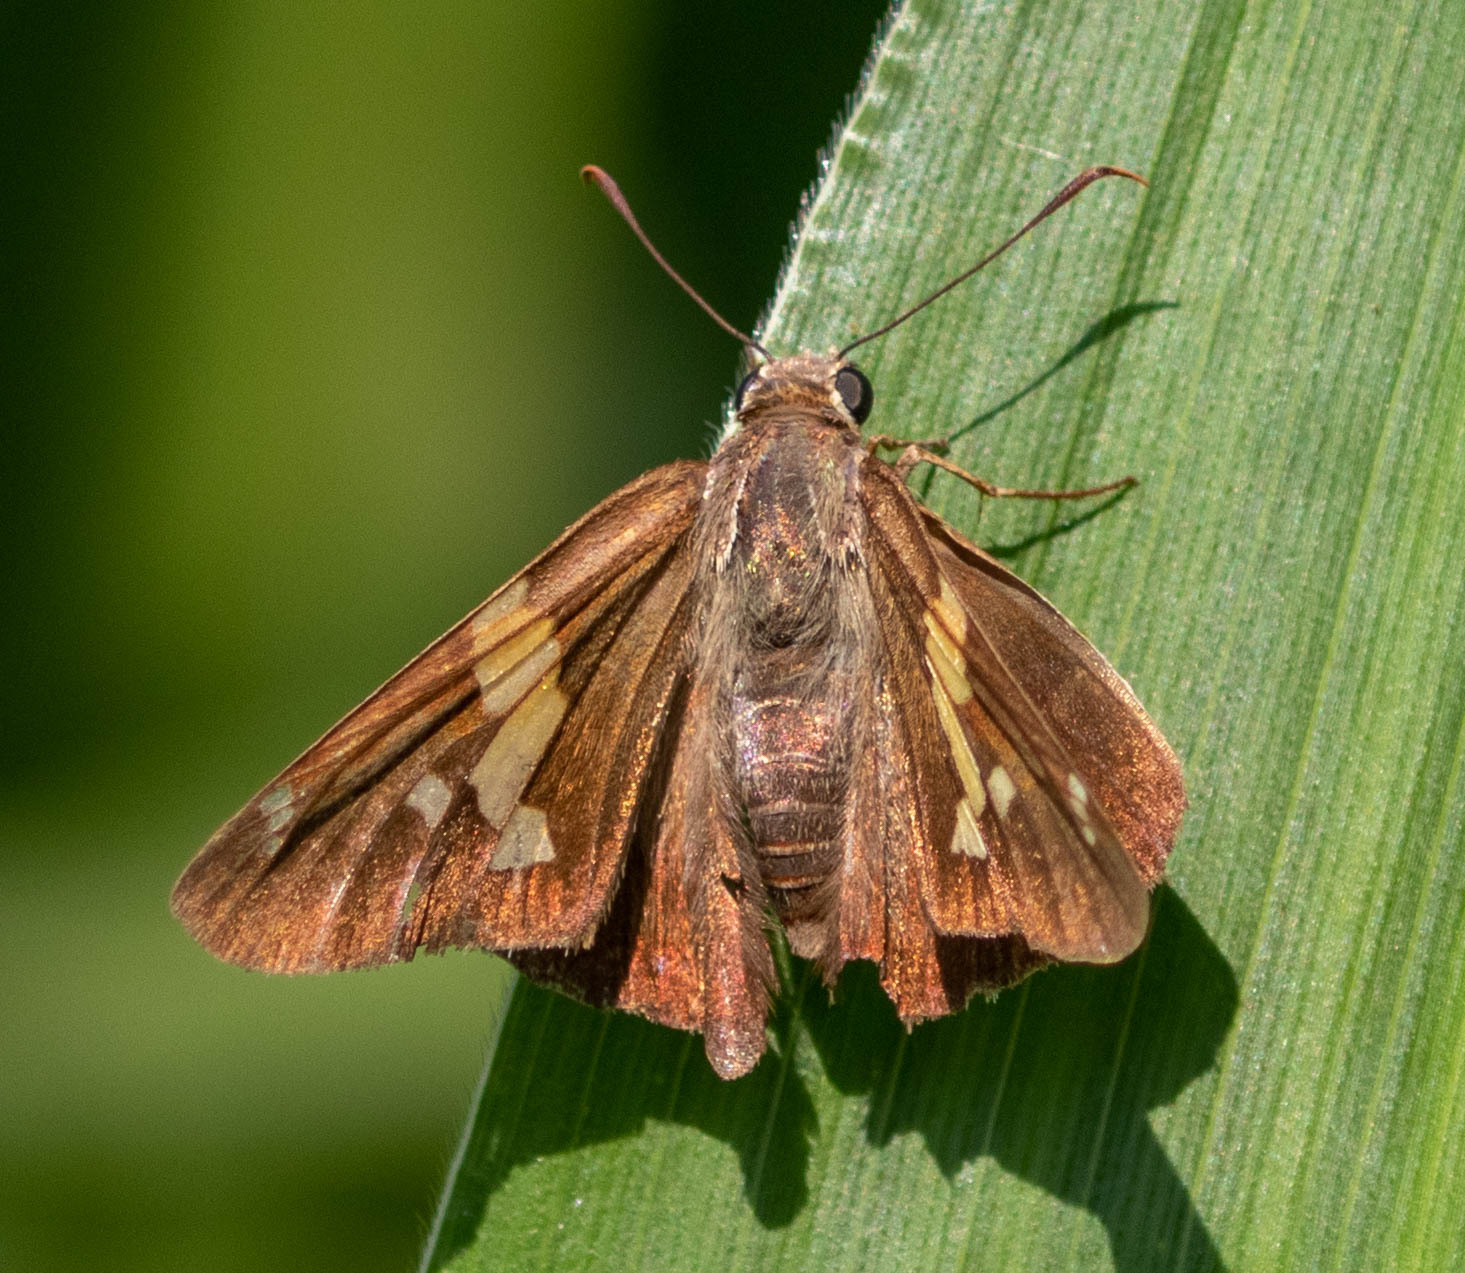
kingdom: Animalia
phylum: Arthropoda
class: Insecta
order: Lepidoptera
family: Hesperiidae
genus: Epargyreus
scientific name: Epargyreus clarus
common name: Silver-spotted skipper
